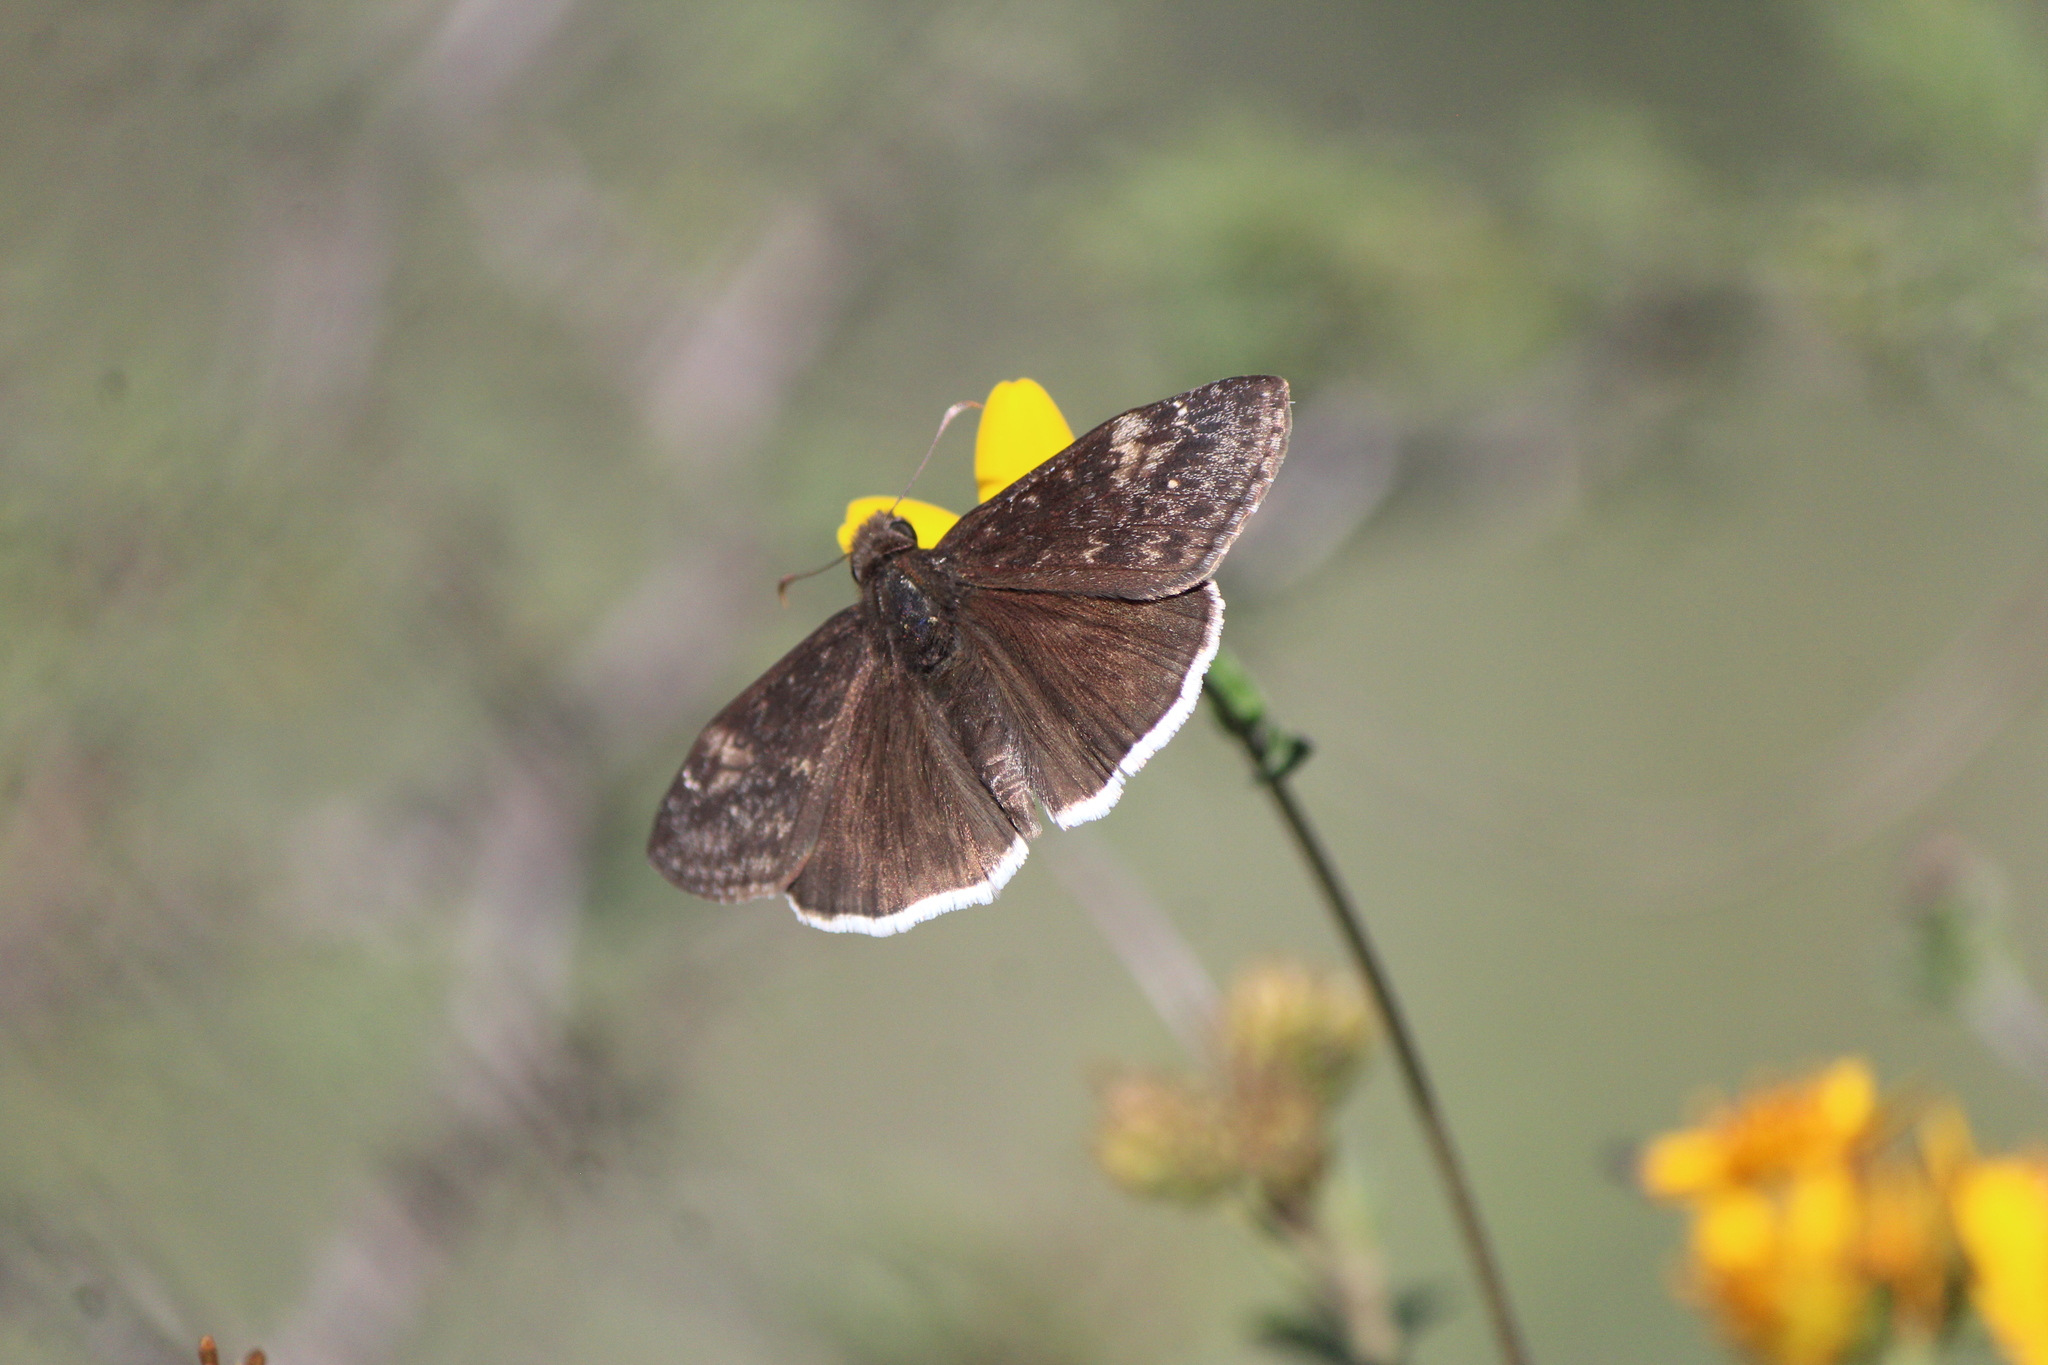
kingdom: Animalia
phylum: Arthropoda
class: Insecta
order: Lepidoptera
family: Hesperiidae
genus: Erynnis
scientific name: Erynnis funeralis
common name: Funereal duskywing
